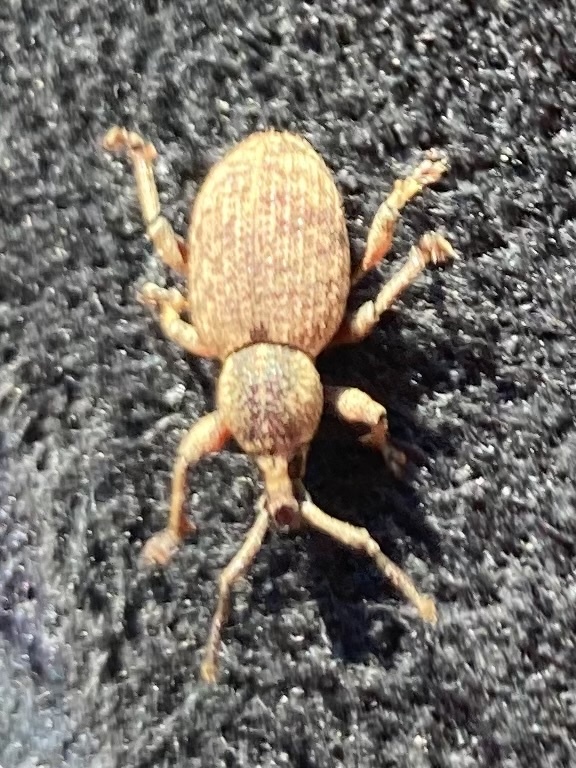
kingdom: Animalia
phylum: Arthropoda
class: Insecta
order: Coleoptera
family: Curculionidae
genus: Otiorhynchus
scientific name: Otiorhynchus singularis
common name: Clay-coloured weevil
